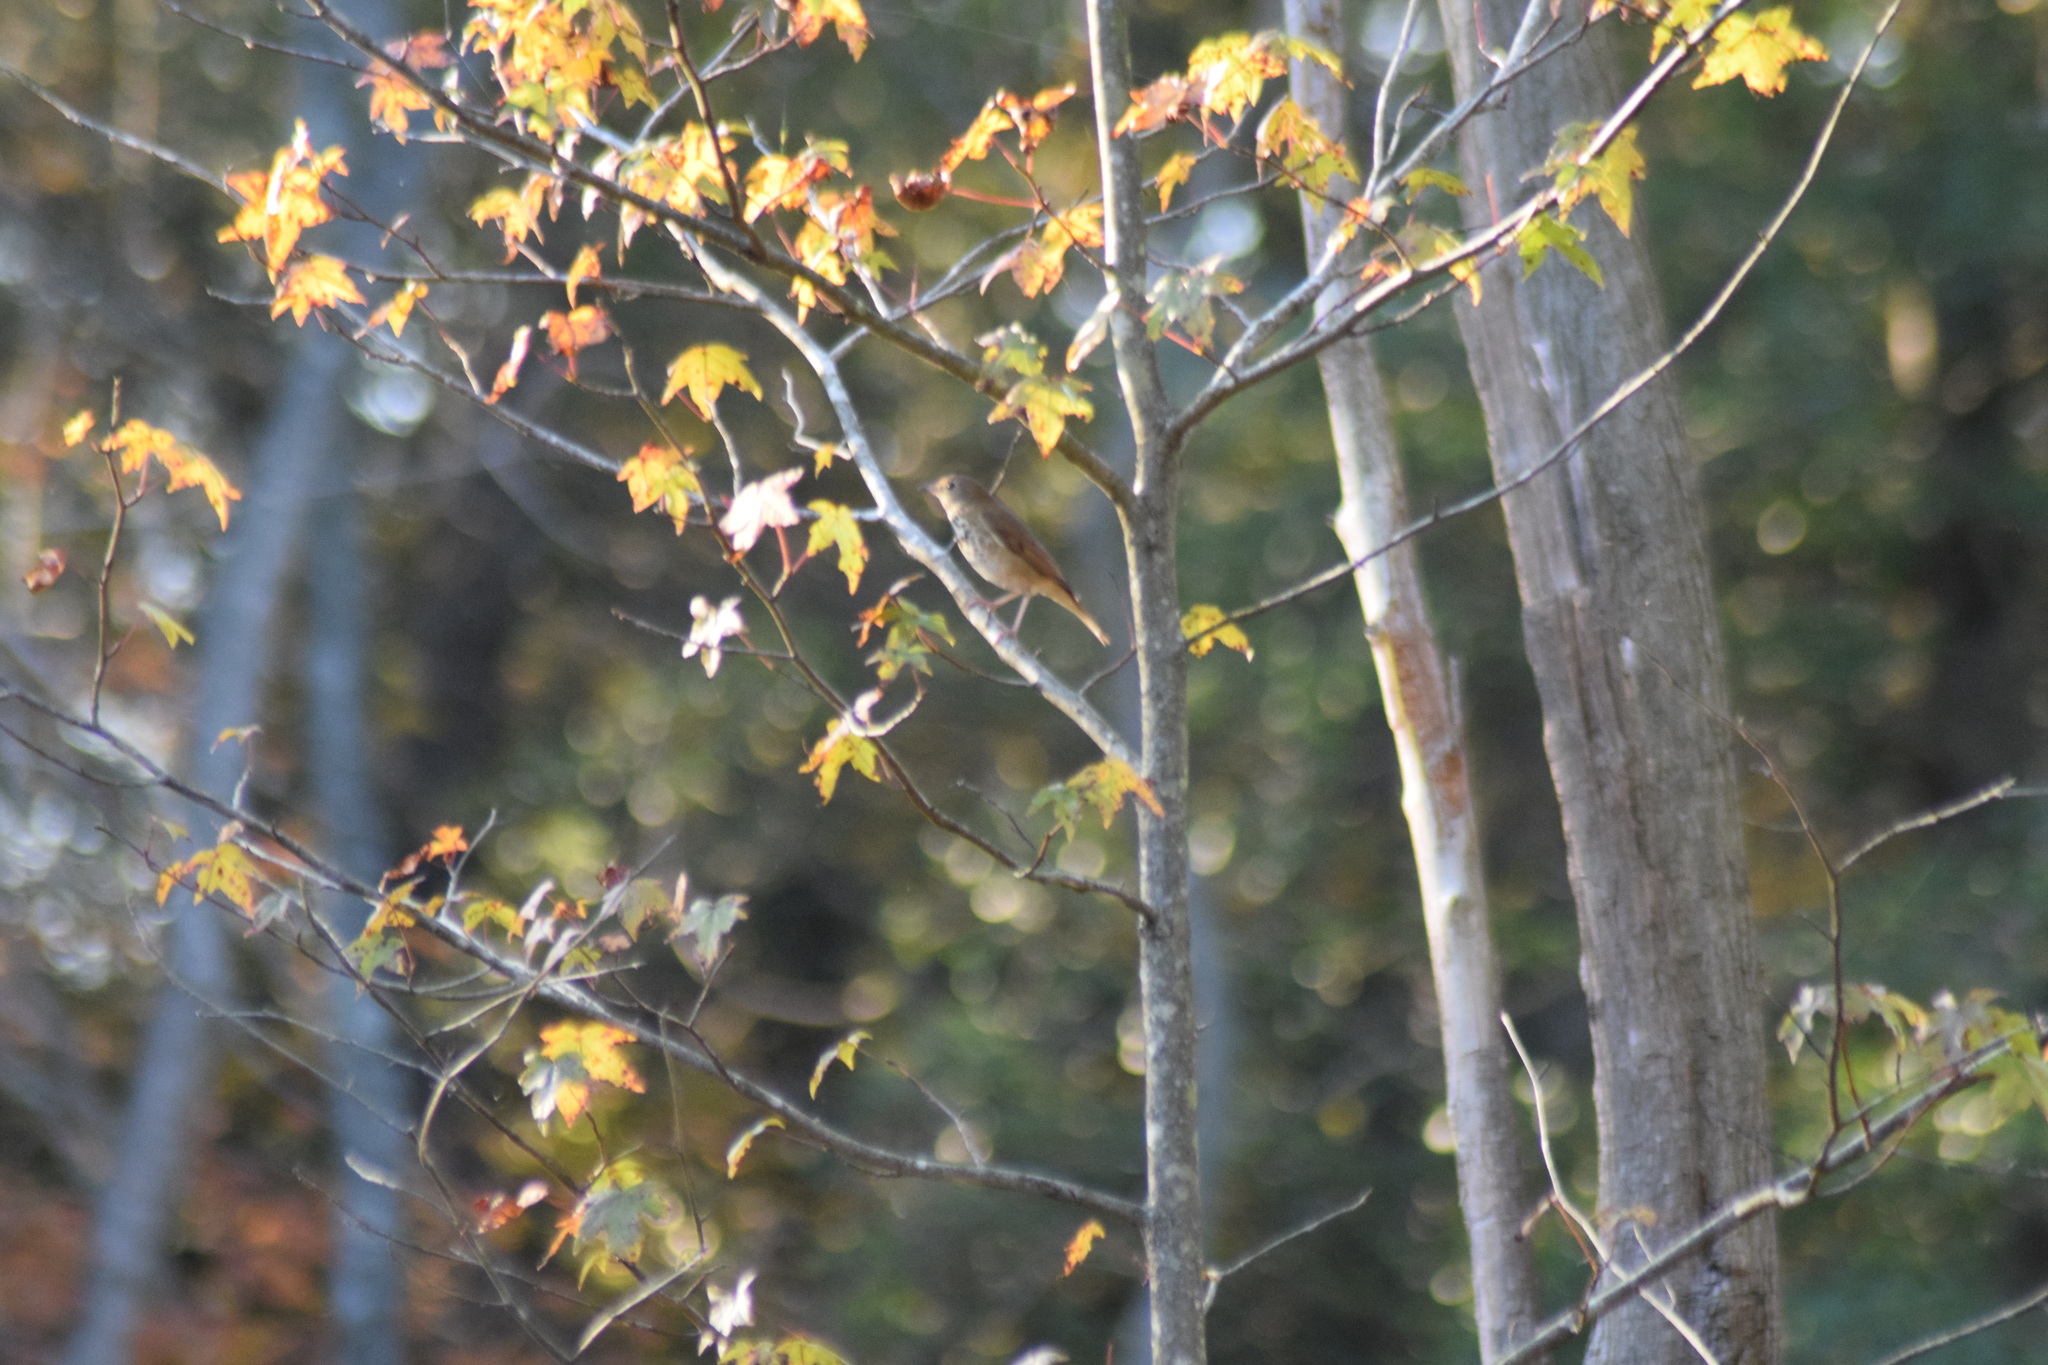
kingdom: Animalia
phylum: Chordata
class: Aves
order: Passeriformes
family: Turdidae
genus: Catharus
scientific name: Catharus guttatus
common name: Hermit thrush
